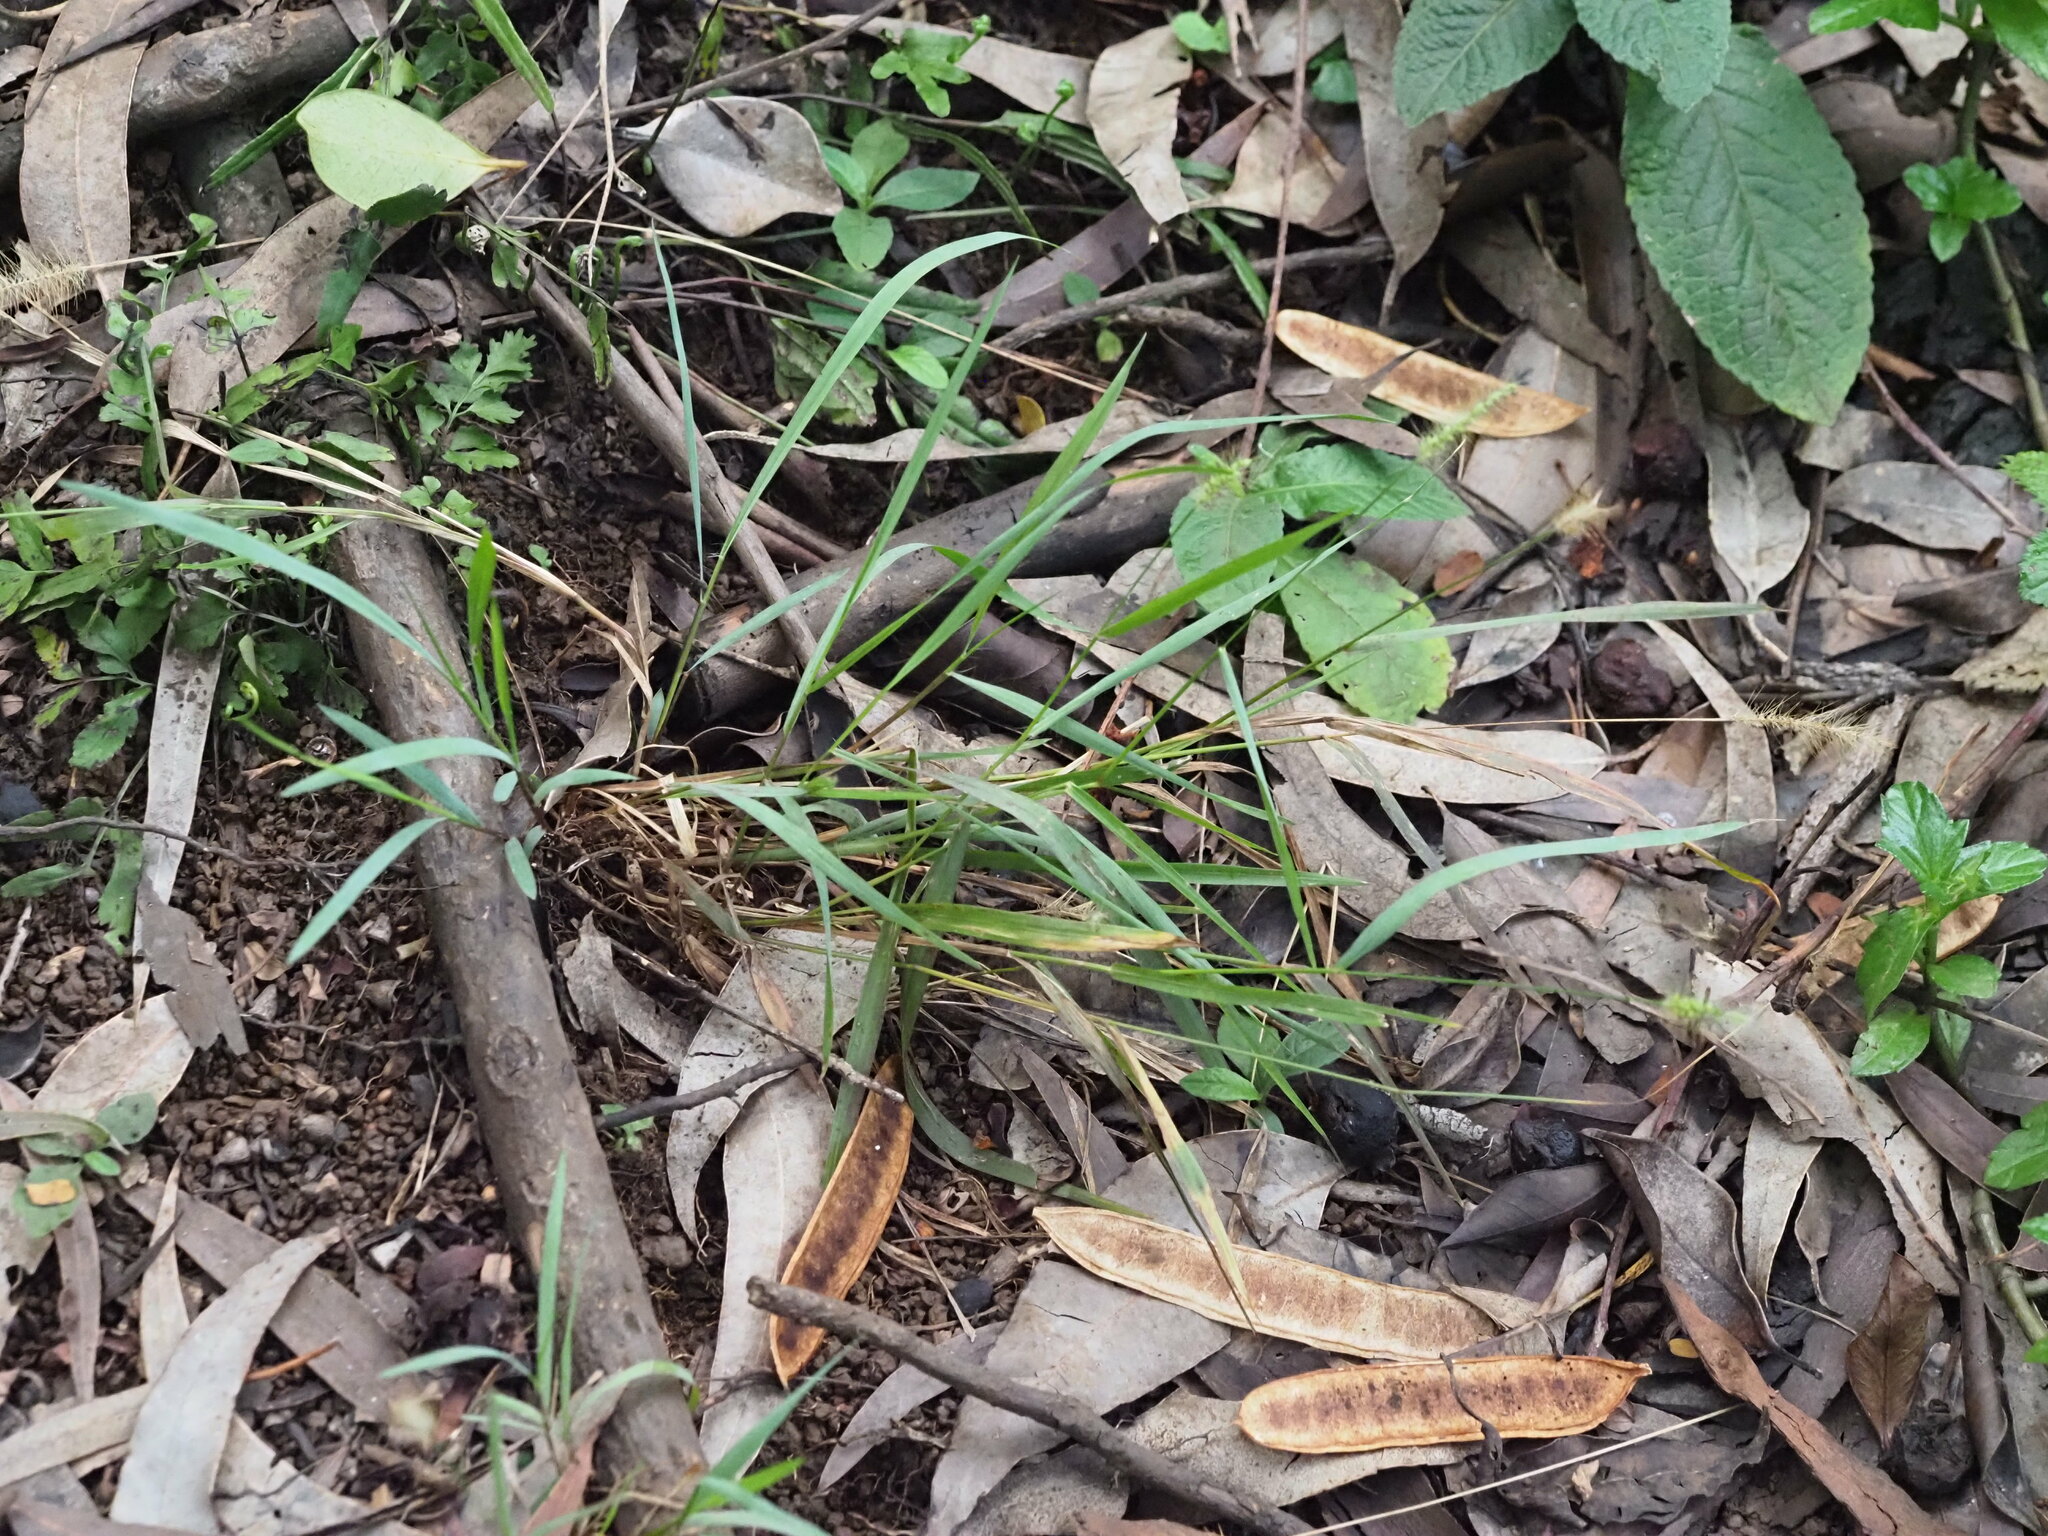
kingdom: Plantae
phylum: Tracheophyta
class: Liliopsida
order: Poales
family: Poaceae
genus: Setaria
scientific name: Setaria parviflora
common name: Knotroot bristle-grass
